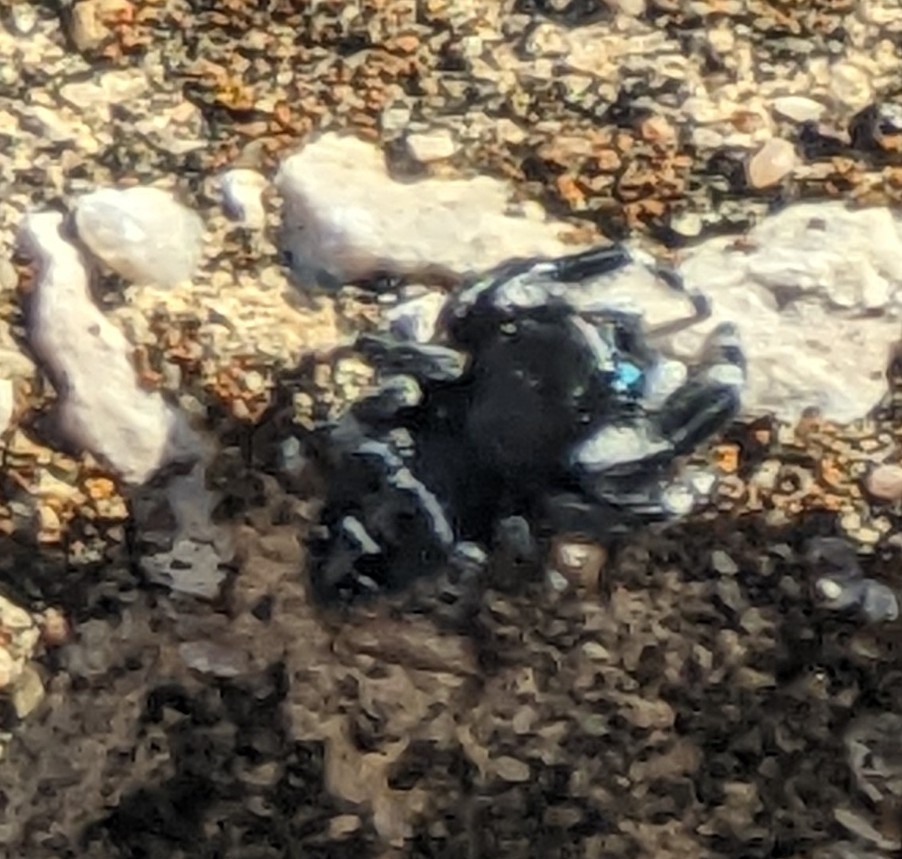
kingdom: Animalia
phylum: Arthropoda
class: Arachnida
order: Araneae
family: Salticidae
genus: Phidippus
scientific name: Phidippus audax
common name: Bold jumper
